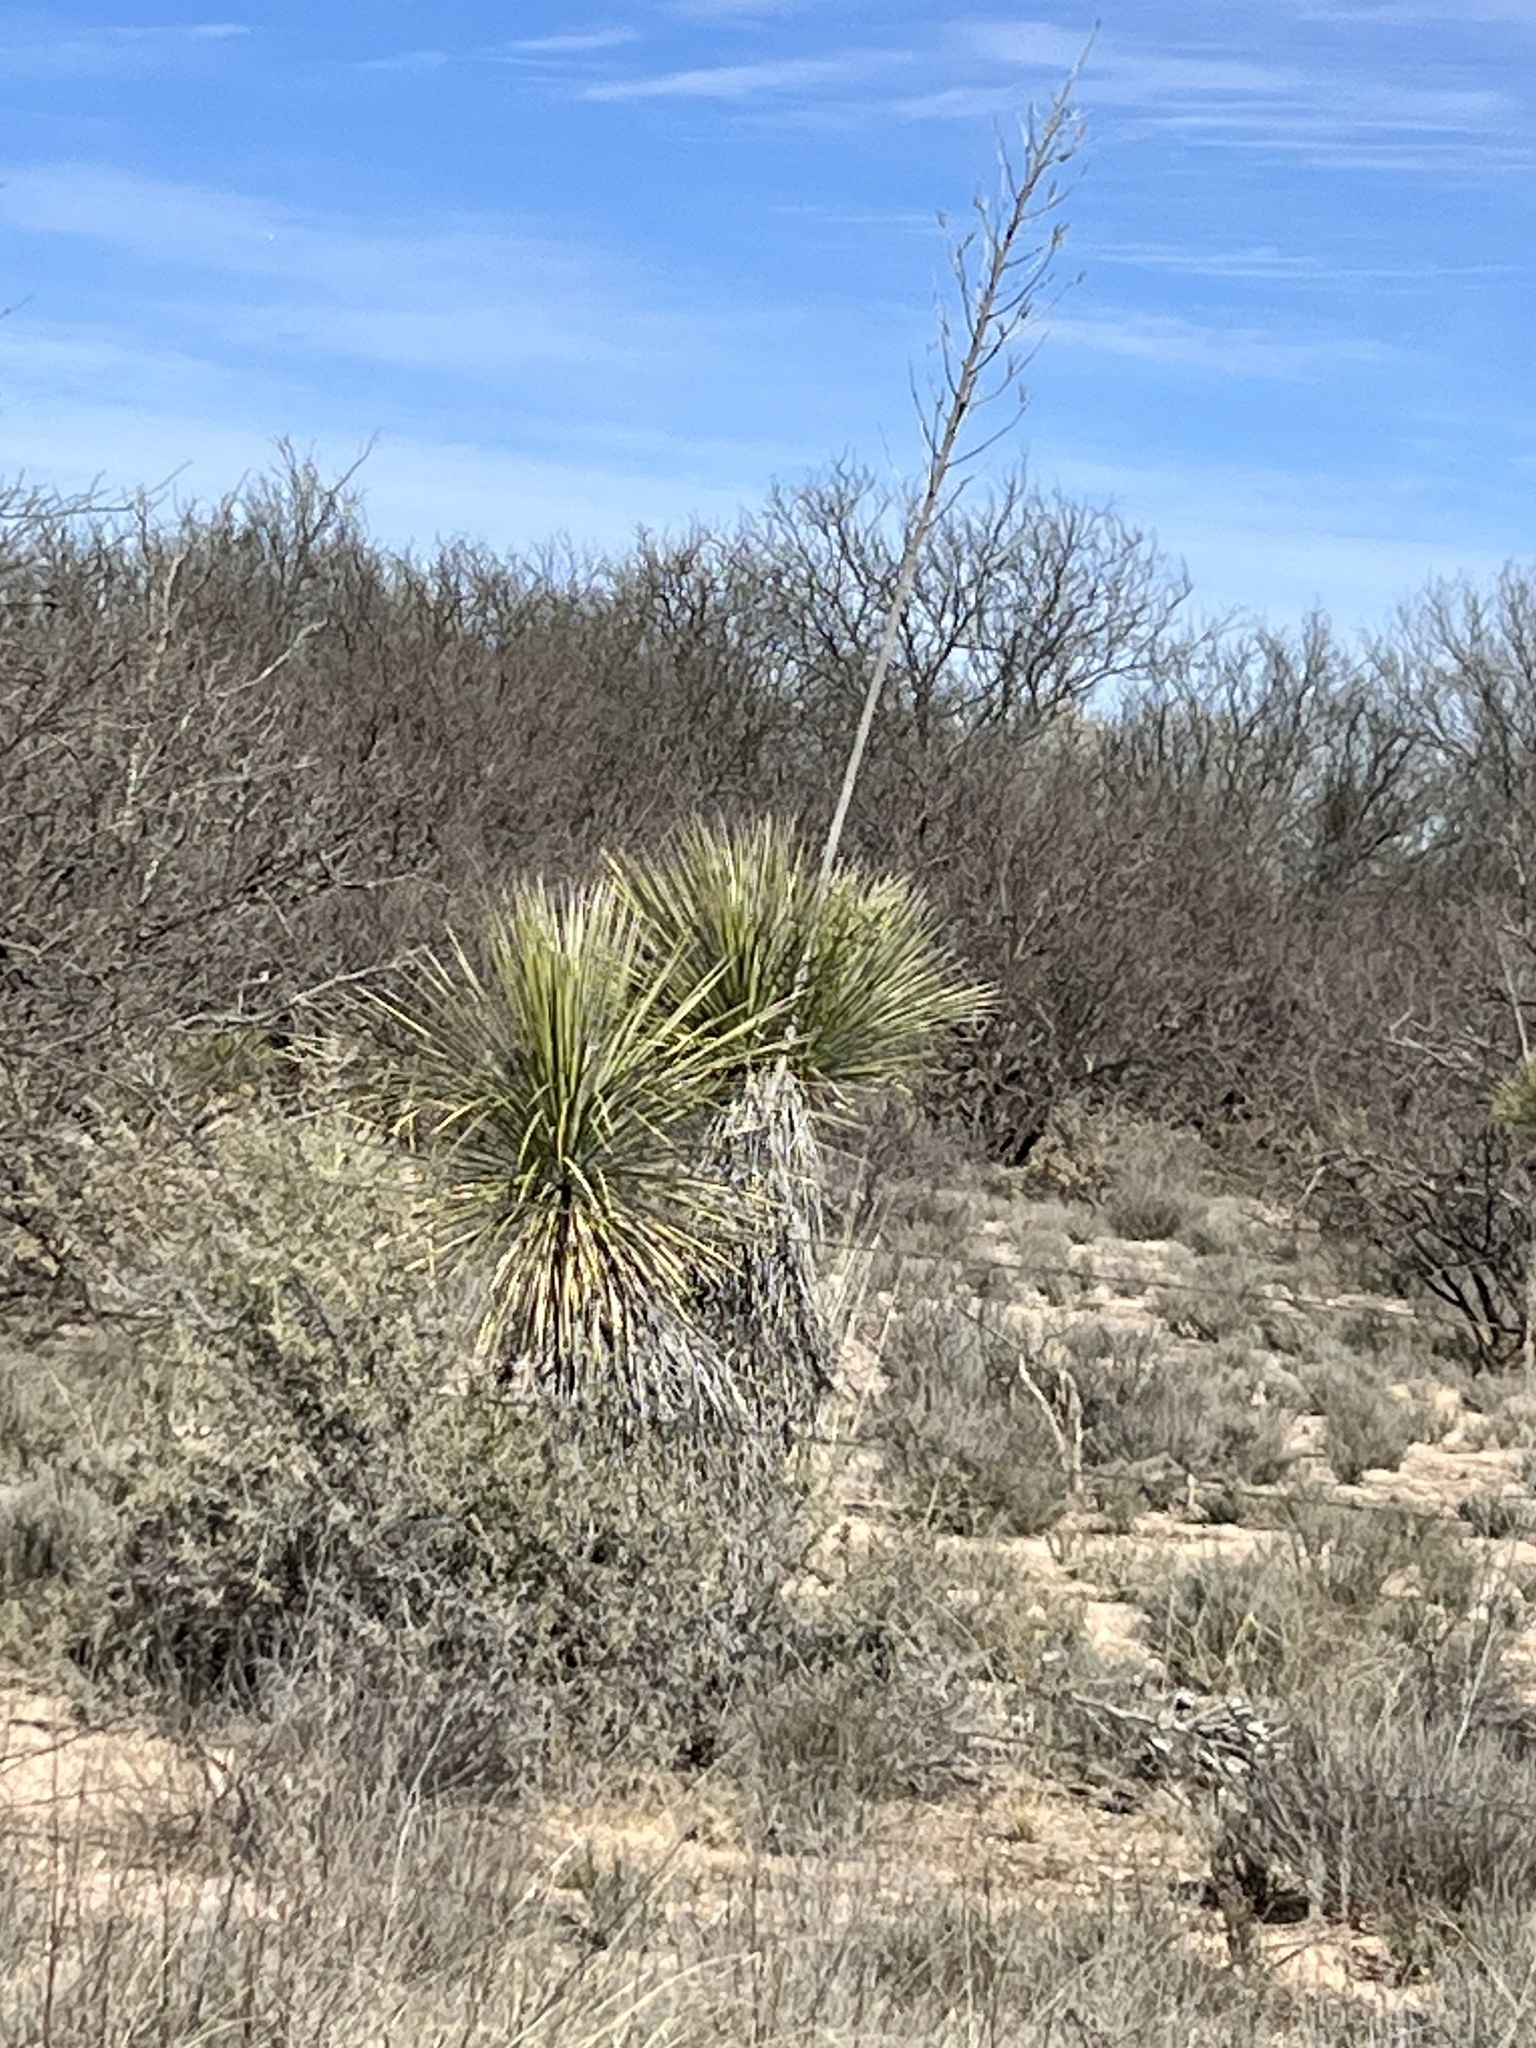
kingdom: Plantae
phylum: Tracheophyta
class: Liliopsida
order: Asparagales
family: Asparagaceae
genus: Yucca
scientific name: Yucca elata
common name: Palmella
